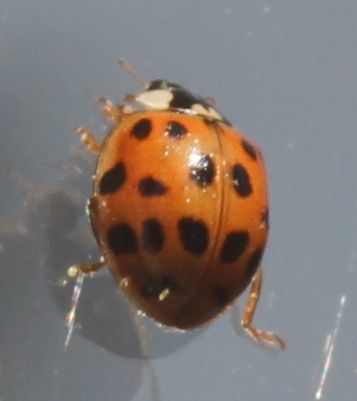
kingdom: Animalia
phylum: Arthropoda
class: Insecta
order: Coleoptera
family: Coccinellidae
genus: Harmonia
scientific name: Harmonia axyridis
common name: Harlequin ladybird
